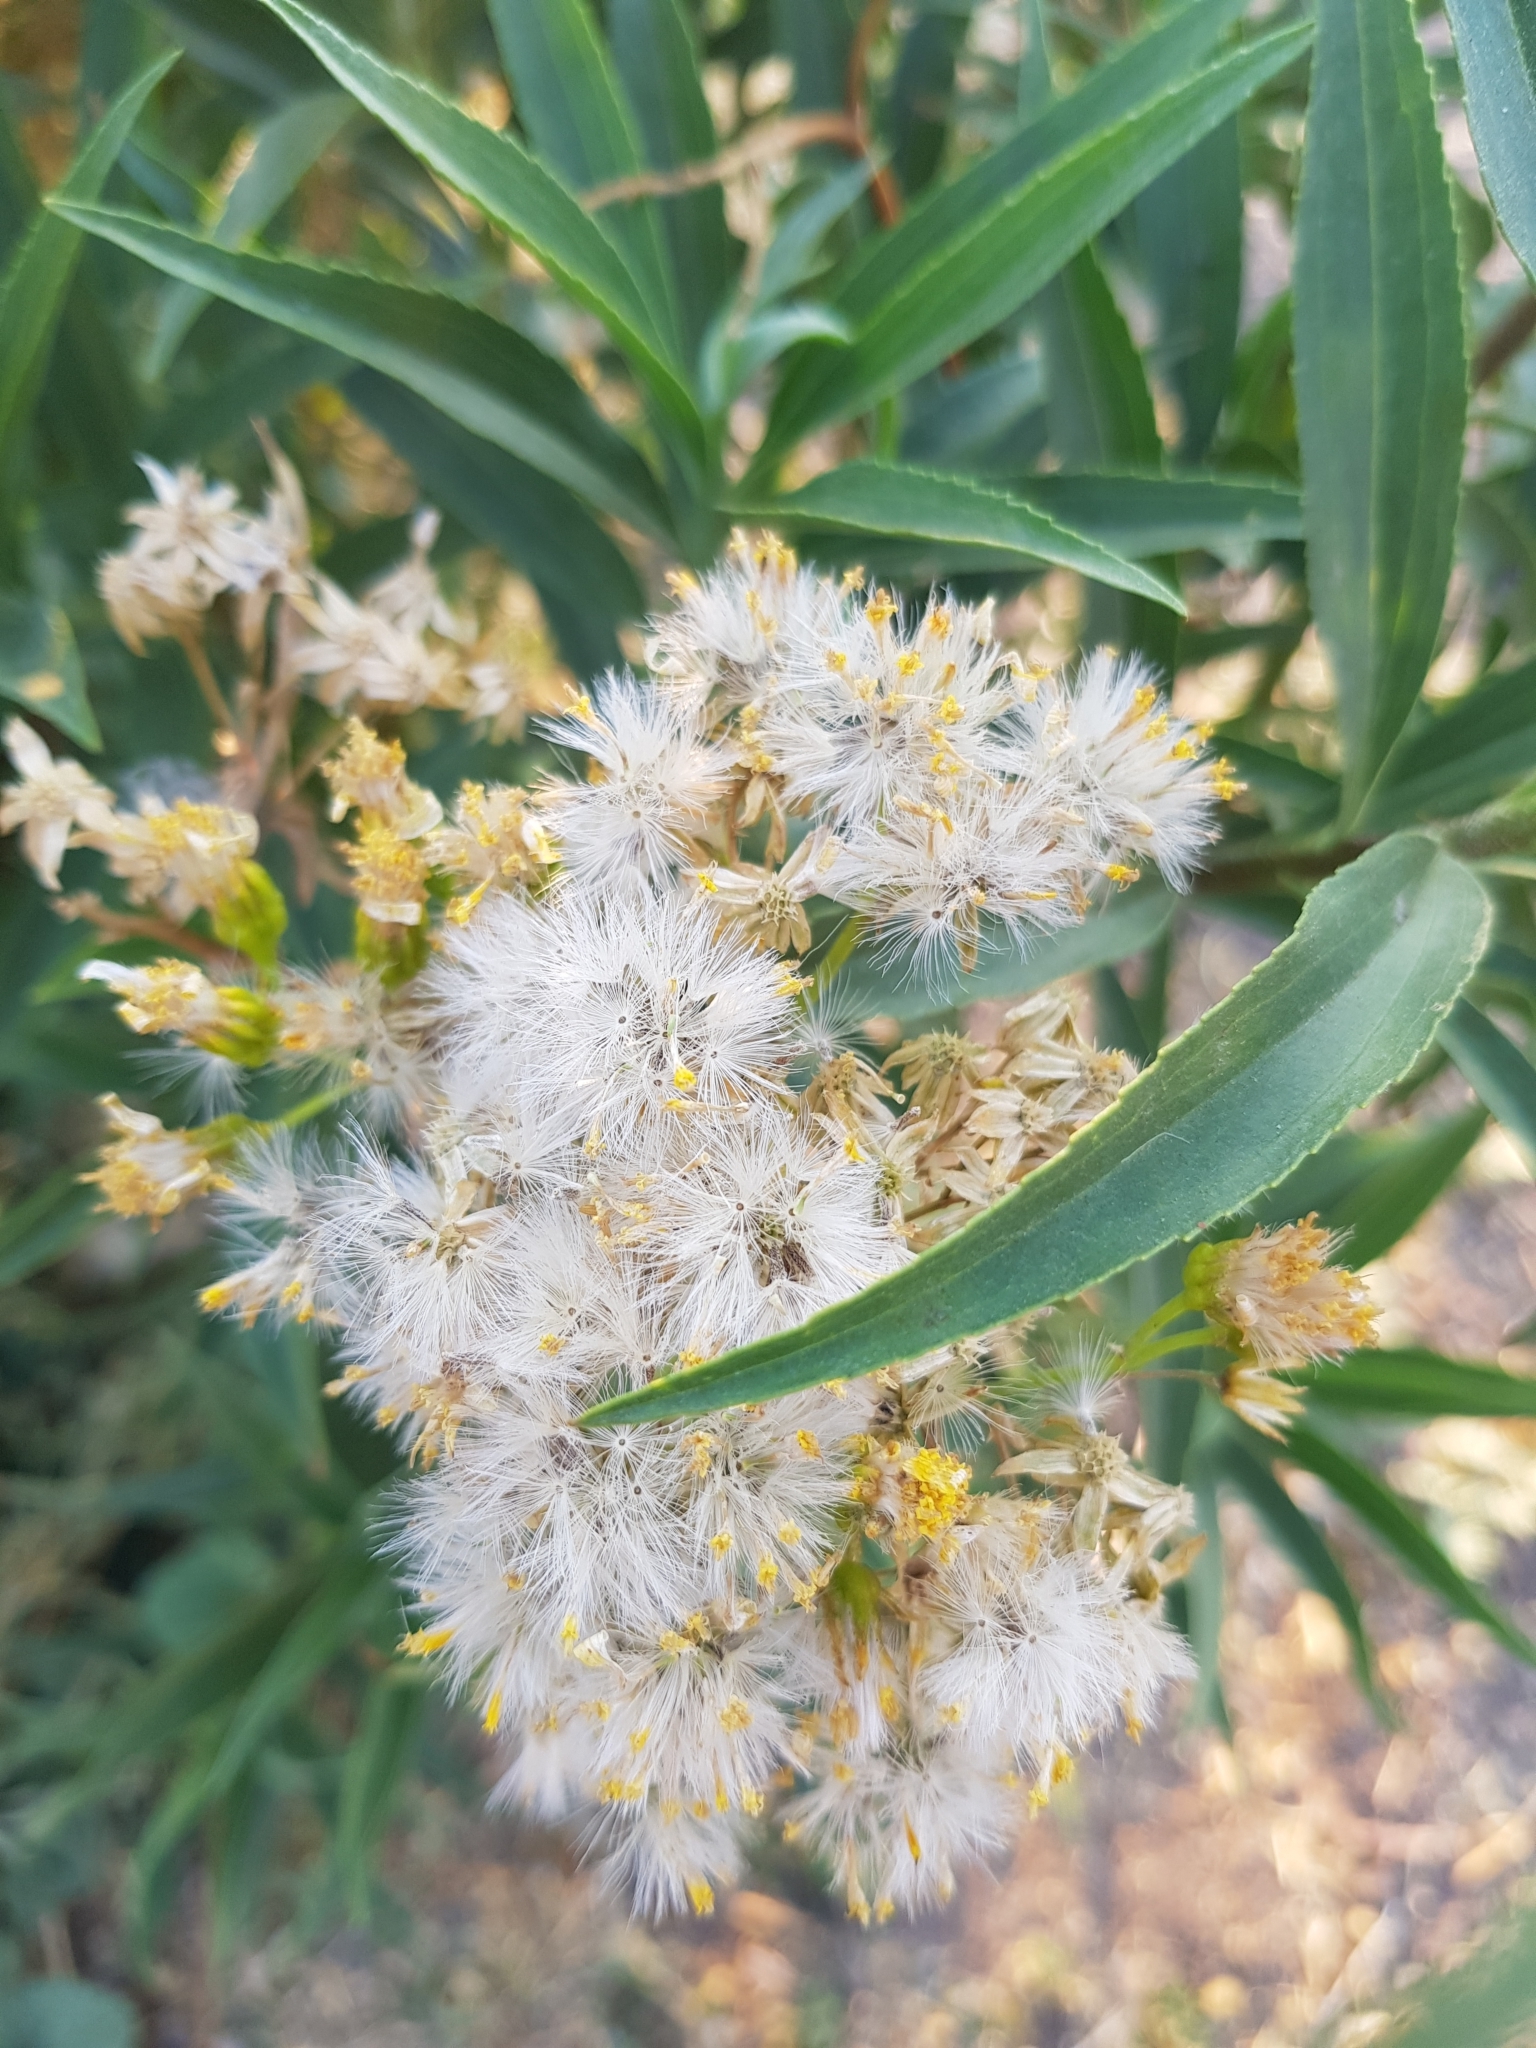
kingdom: Plantae
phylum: Tracheophyta
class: Magnoliopsida
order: Asterales
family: Asteraceae
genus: Barkleyanthus
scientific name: Barkleyanthus salicifolius
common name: Willow ragwort
